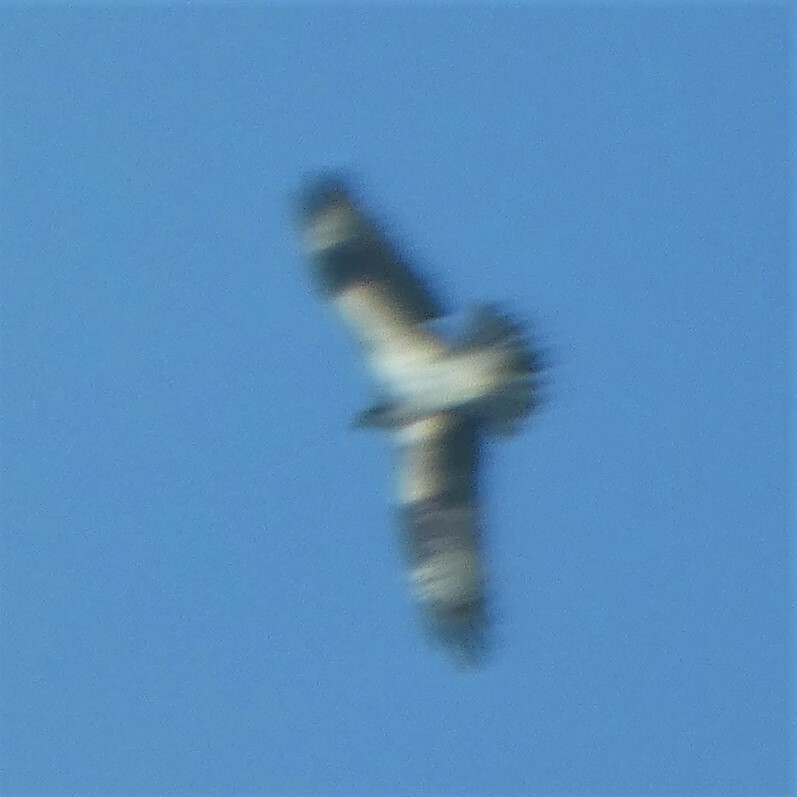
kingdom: Animalia
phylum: Chordata
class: Aves
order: Accipitriformes
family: Pandionidae
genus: Pandion
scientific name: Pandion haliaetus
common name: Osprey
